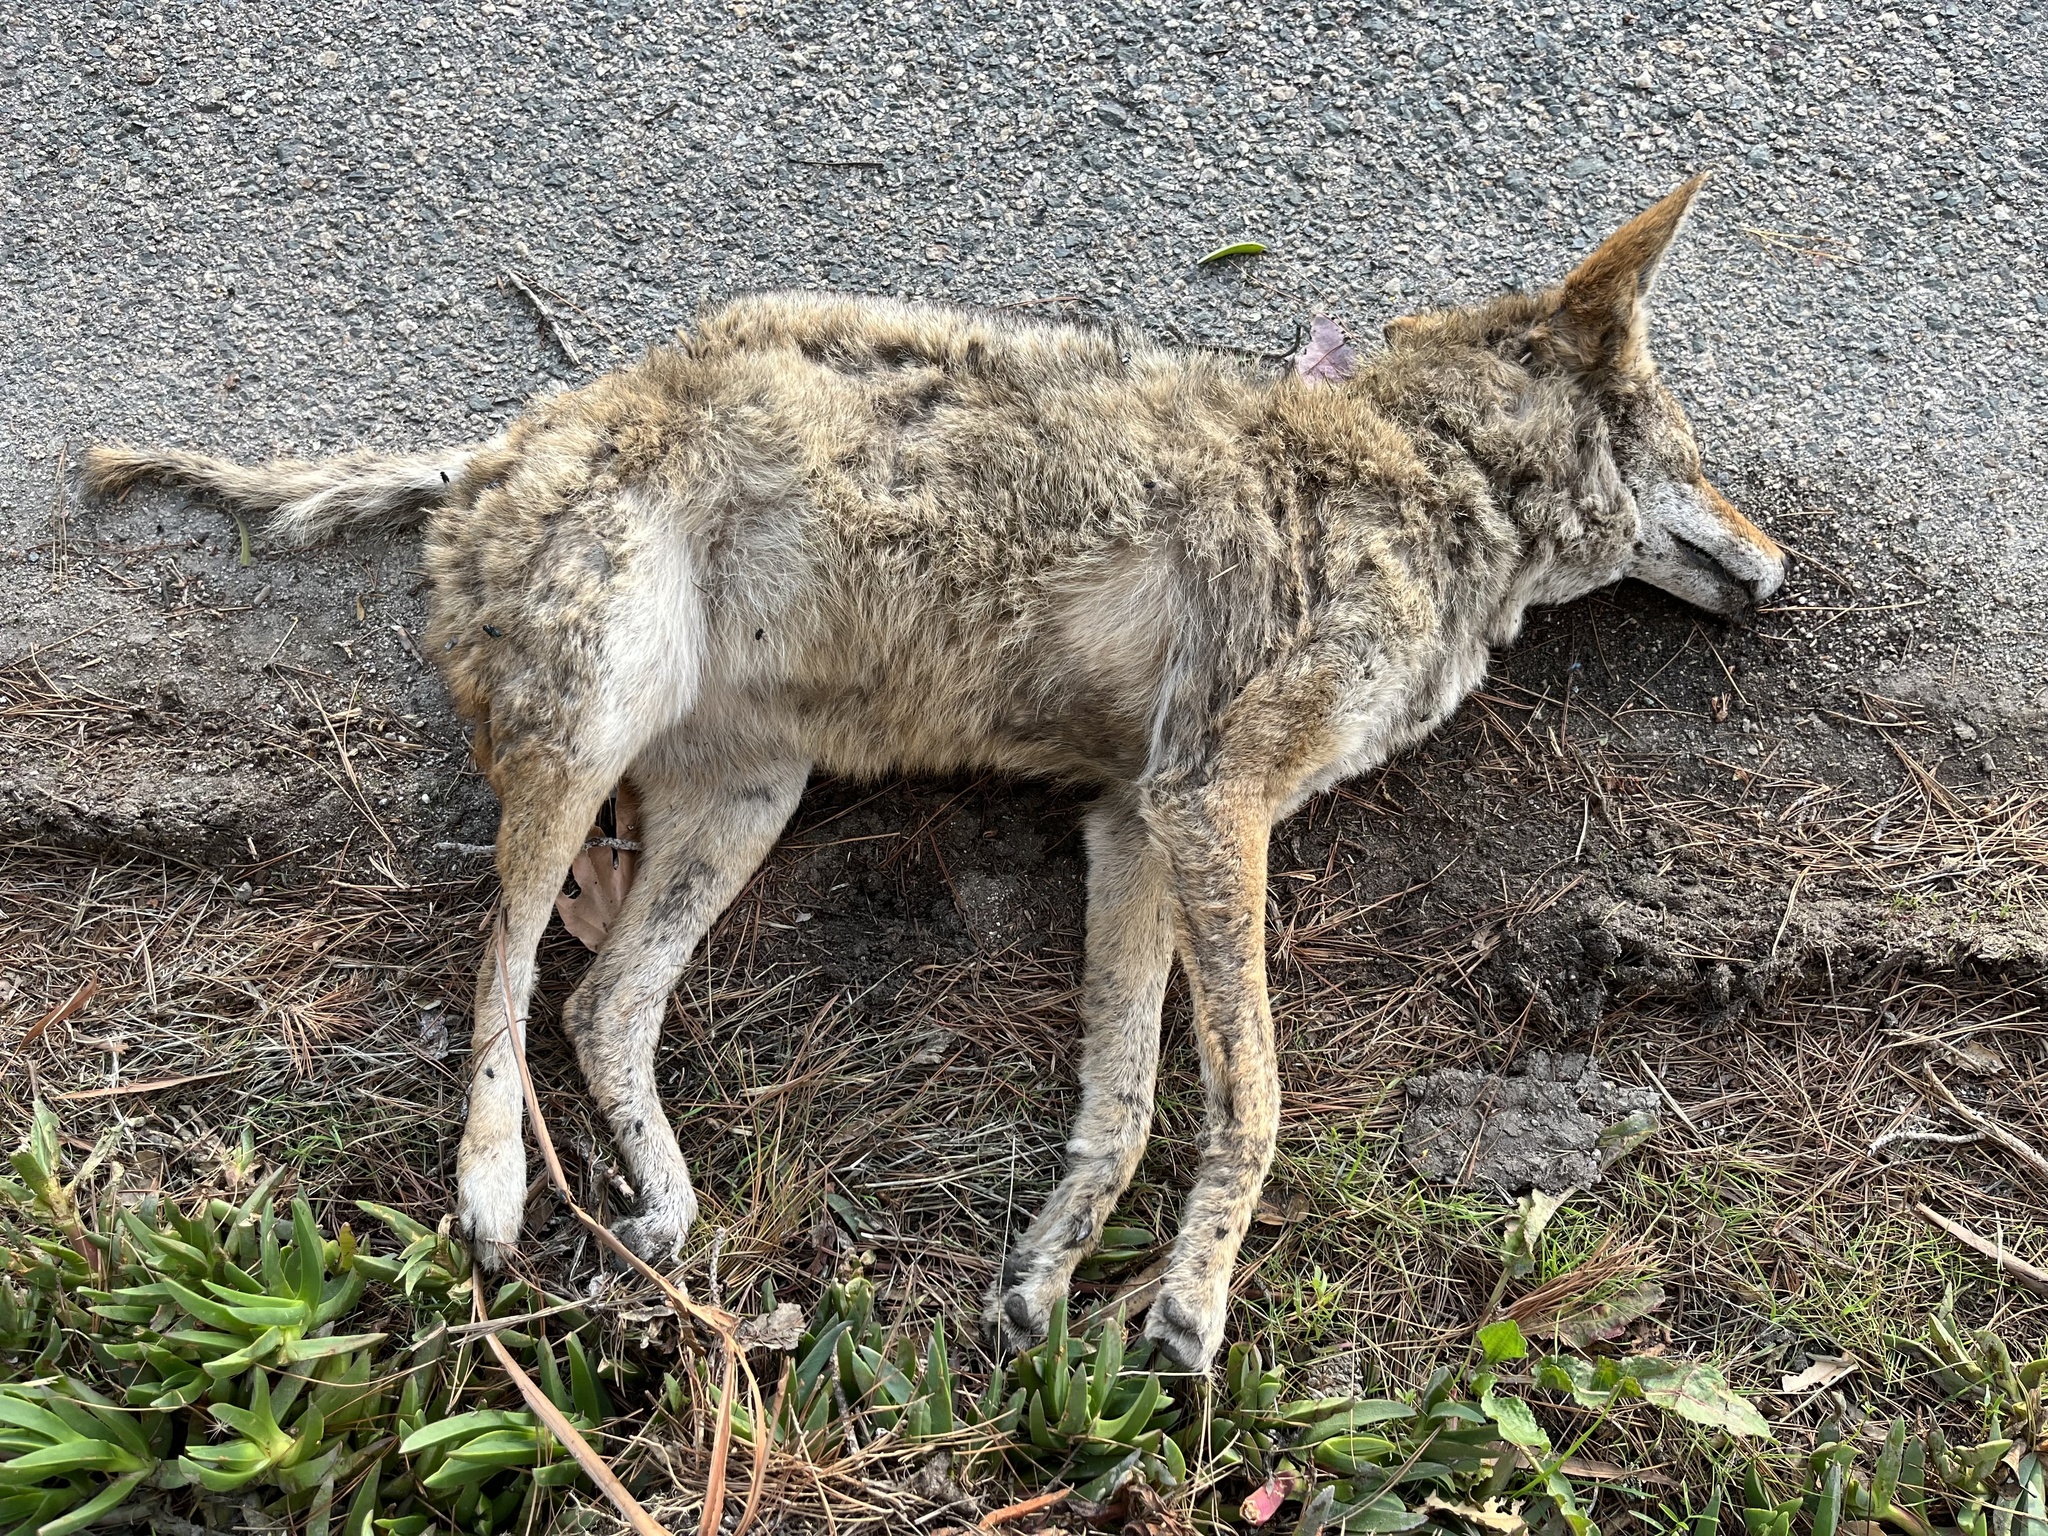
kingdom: Animalia
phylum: Chordata
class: Mammalia
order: Carnivora
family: Canidae
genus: Canis
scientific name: Canis latrans
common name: Coyote
